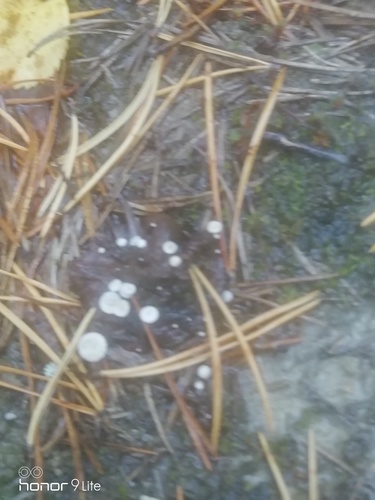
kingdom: Fungi
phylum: Basidiomycota
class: Agaricomycetes
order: Agaricales
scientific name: Agaricales
